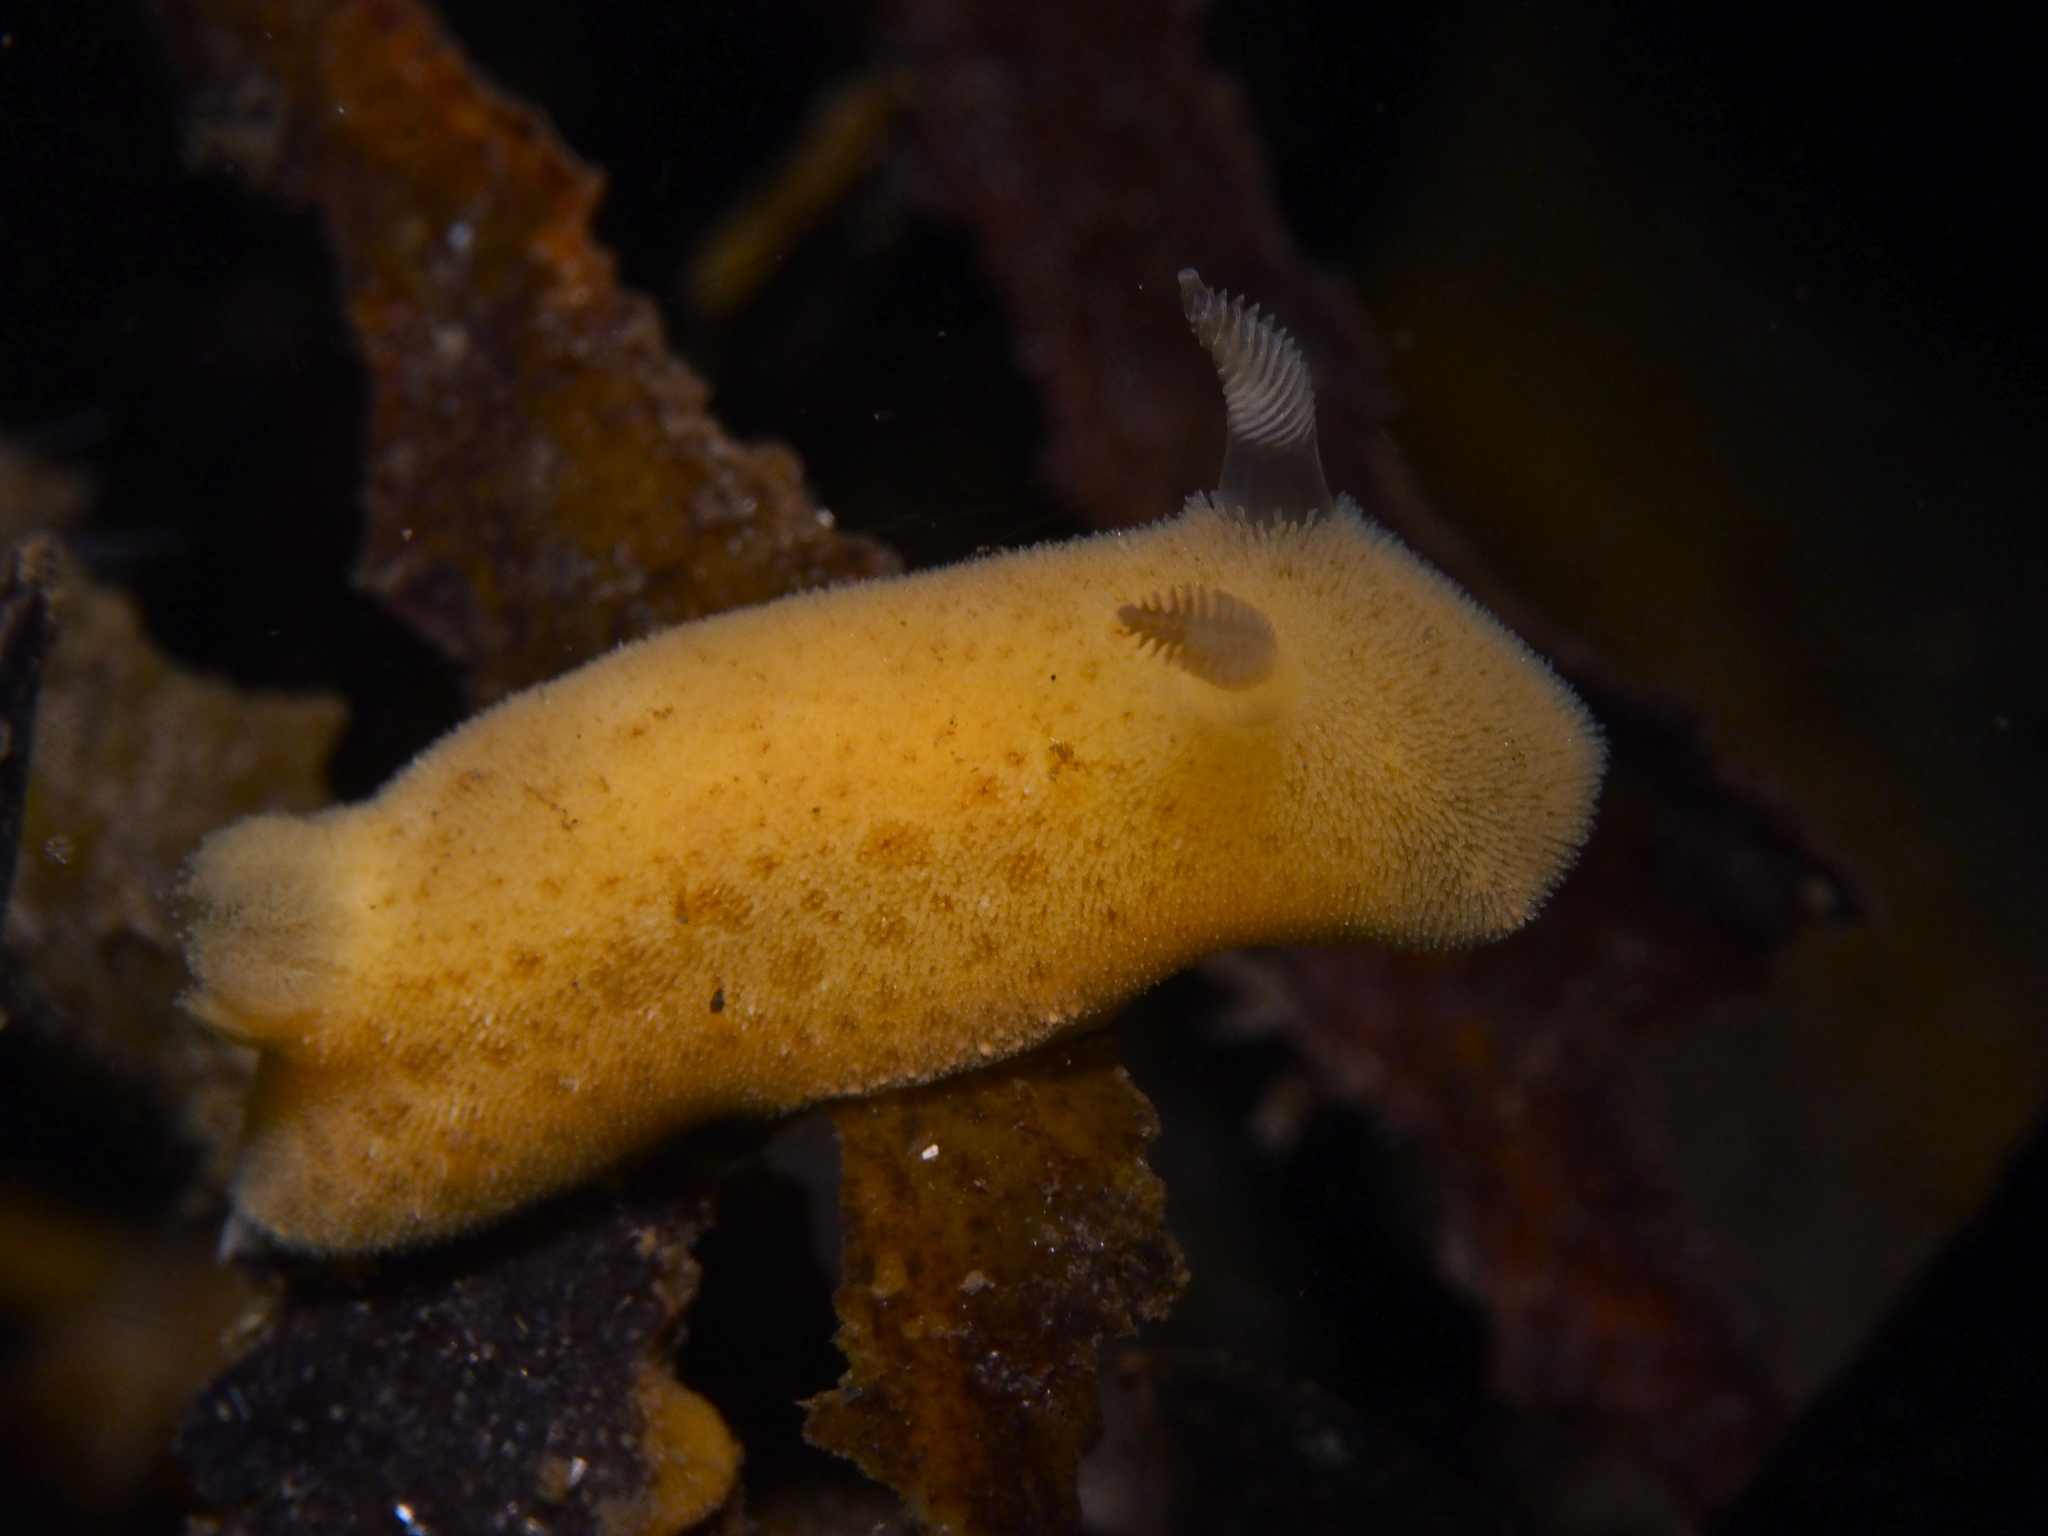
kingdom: Animalia
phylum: Mollusca
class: Gastropoda
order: Nudibranchia
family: Discodorididae
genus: Jorunna
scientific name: Jorunna tomentosa
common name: Grey sea slug
